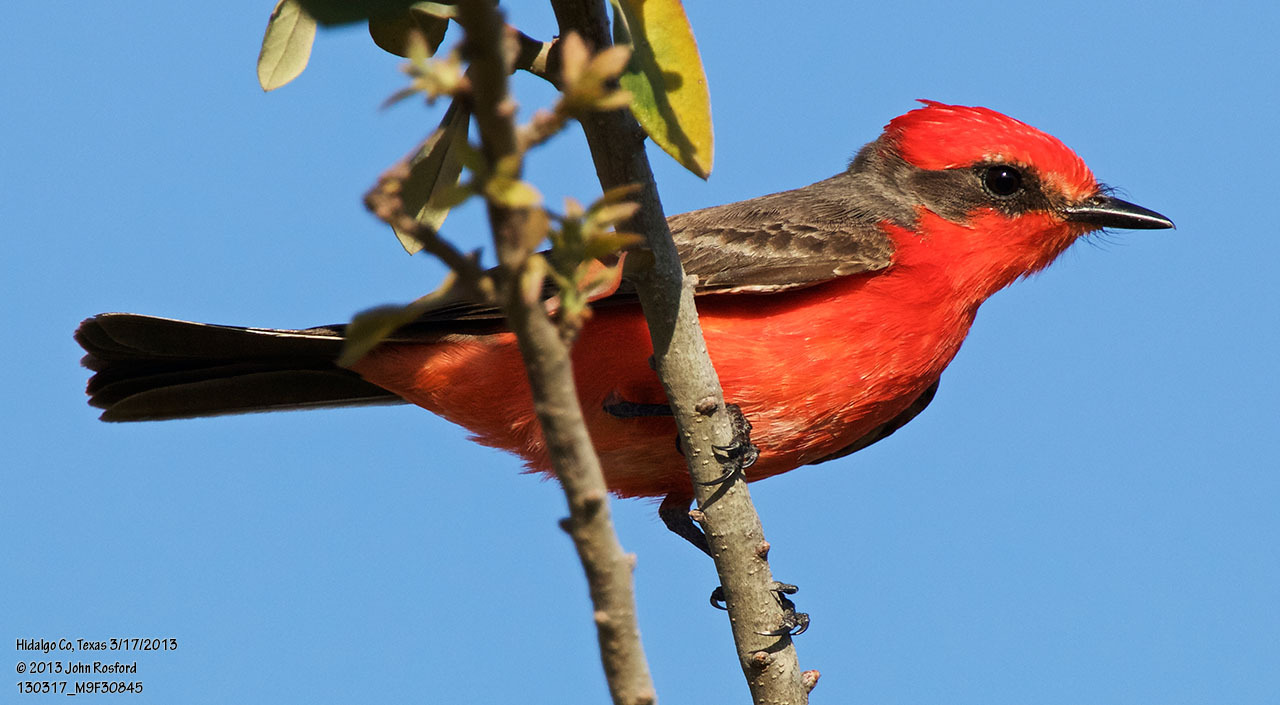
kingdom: Animalia
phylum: Chordata
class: Aves
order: Passeriformes
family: Tyrannidae
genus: Pyrocephalus
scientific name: Pyrocephalus rubinus
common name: Vermilion flycatcher
